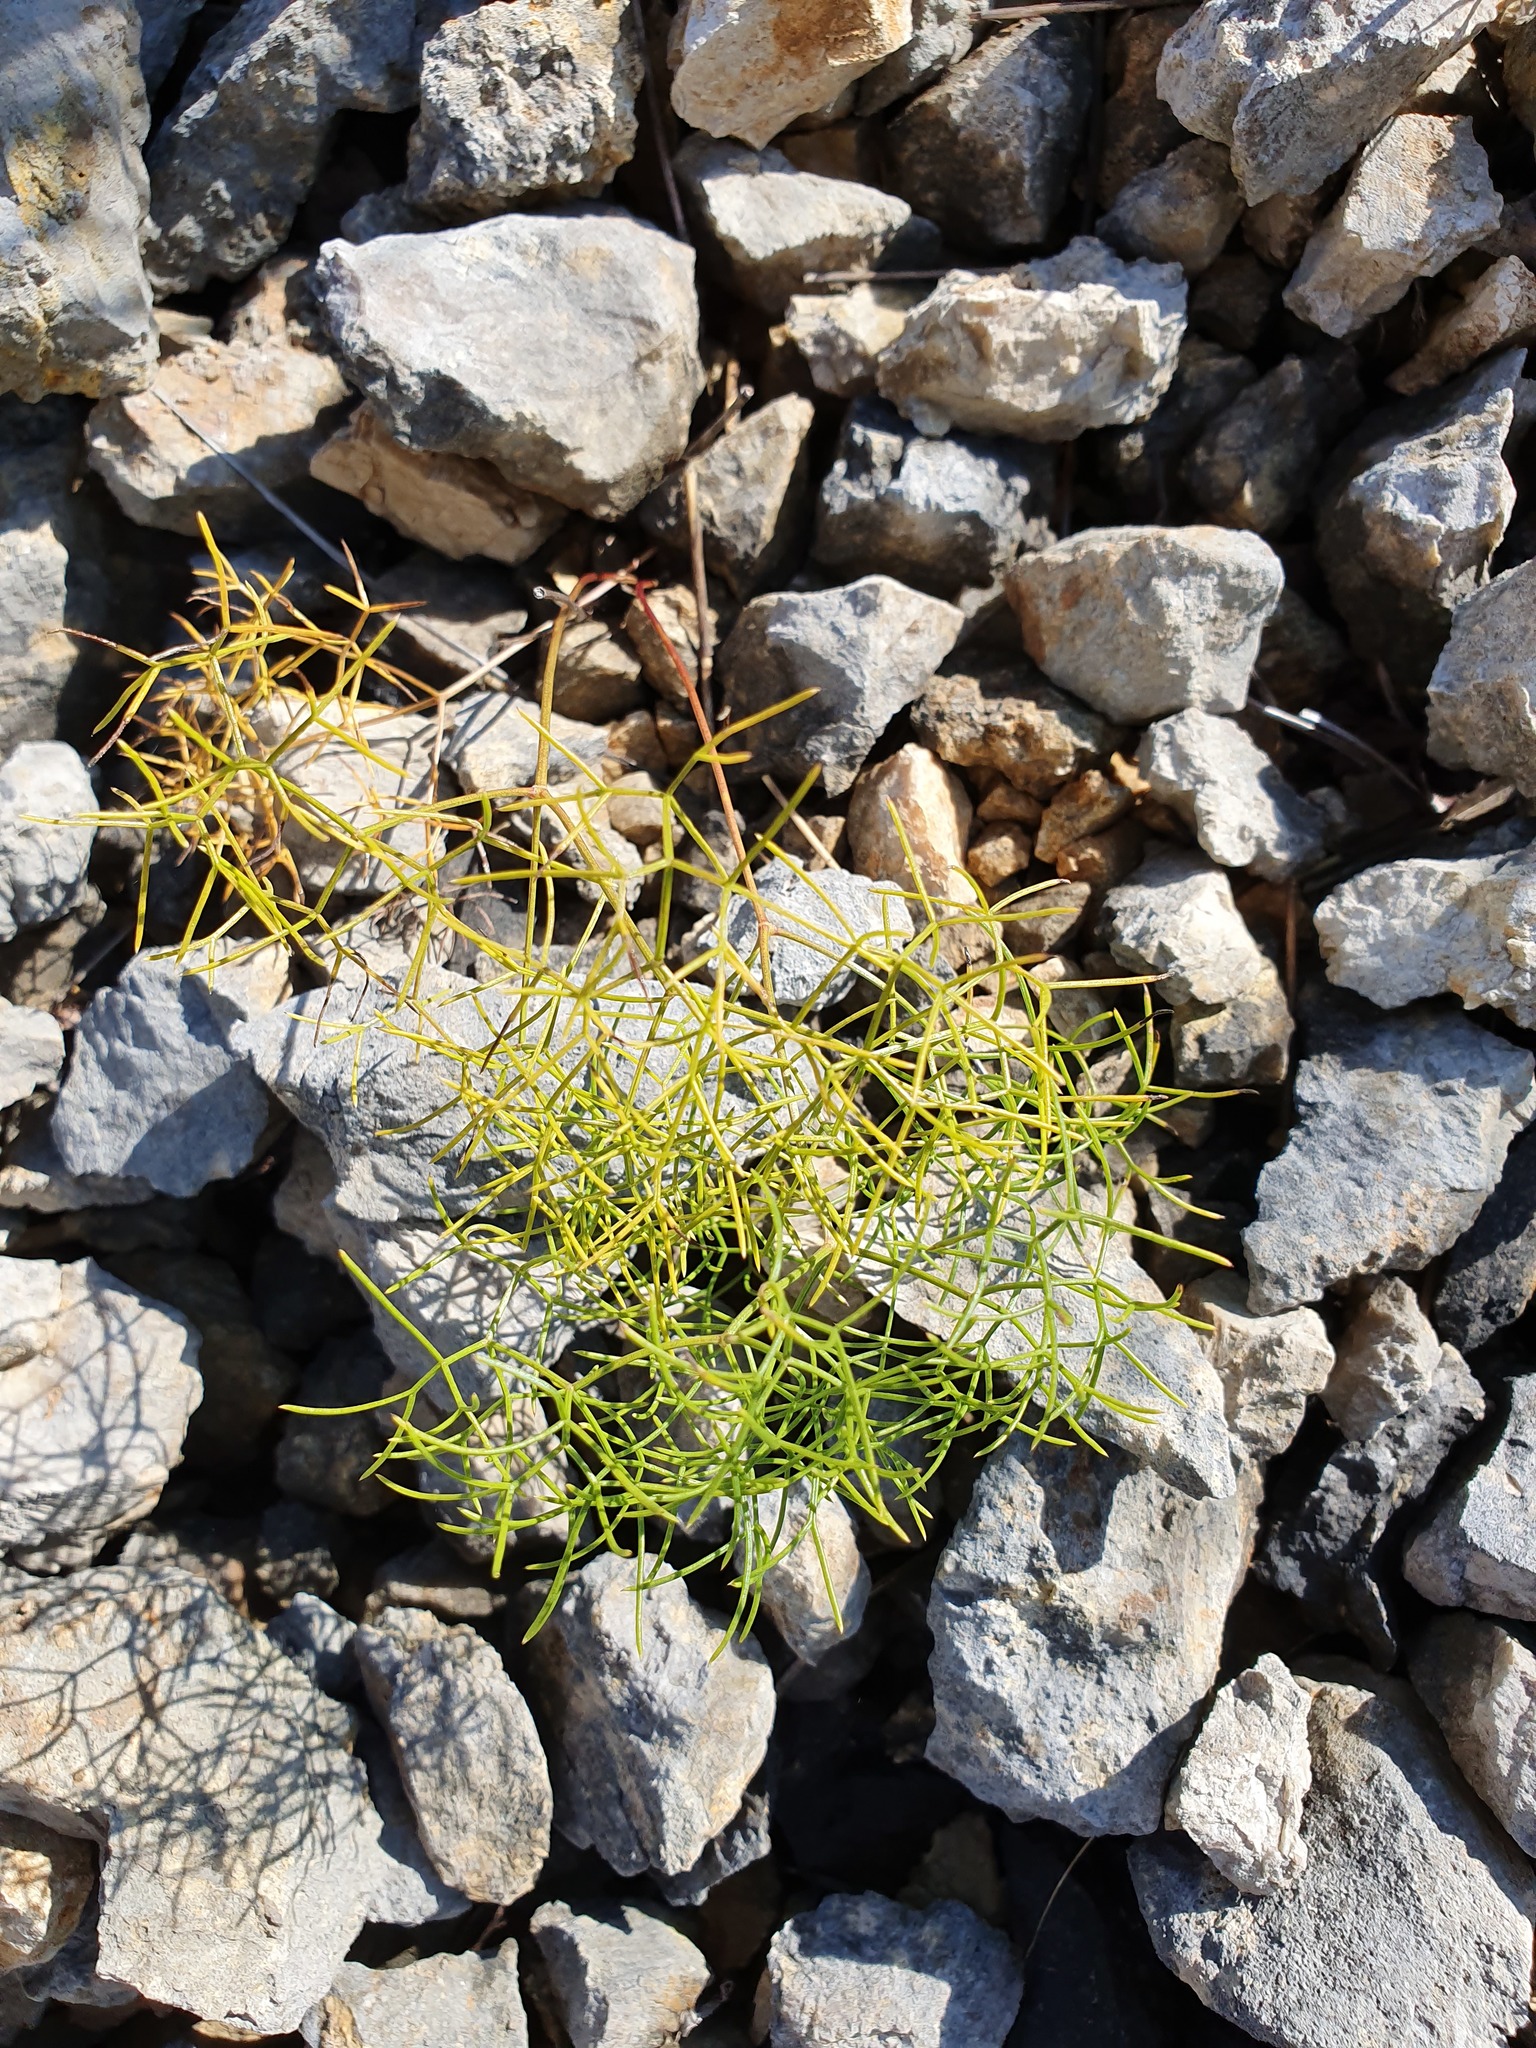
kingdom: Plantae
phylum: Tracheophyta
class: Magnoliopsida
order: Apiales
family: Apiaceae
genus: Athamanta
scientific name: Athamanta turbith
